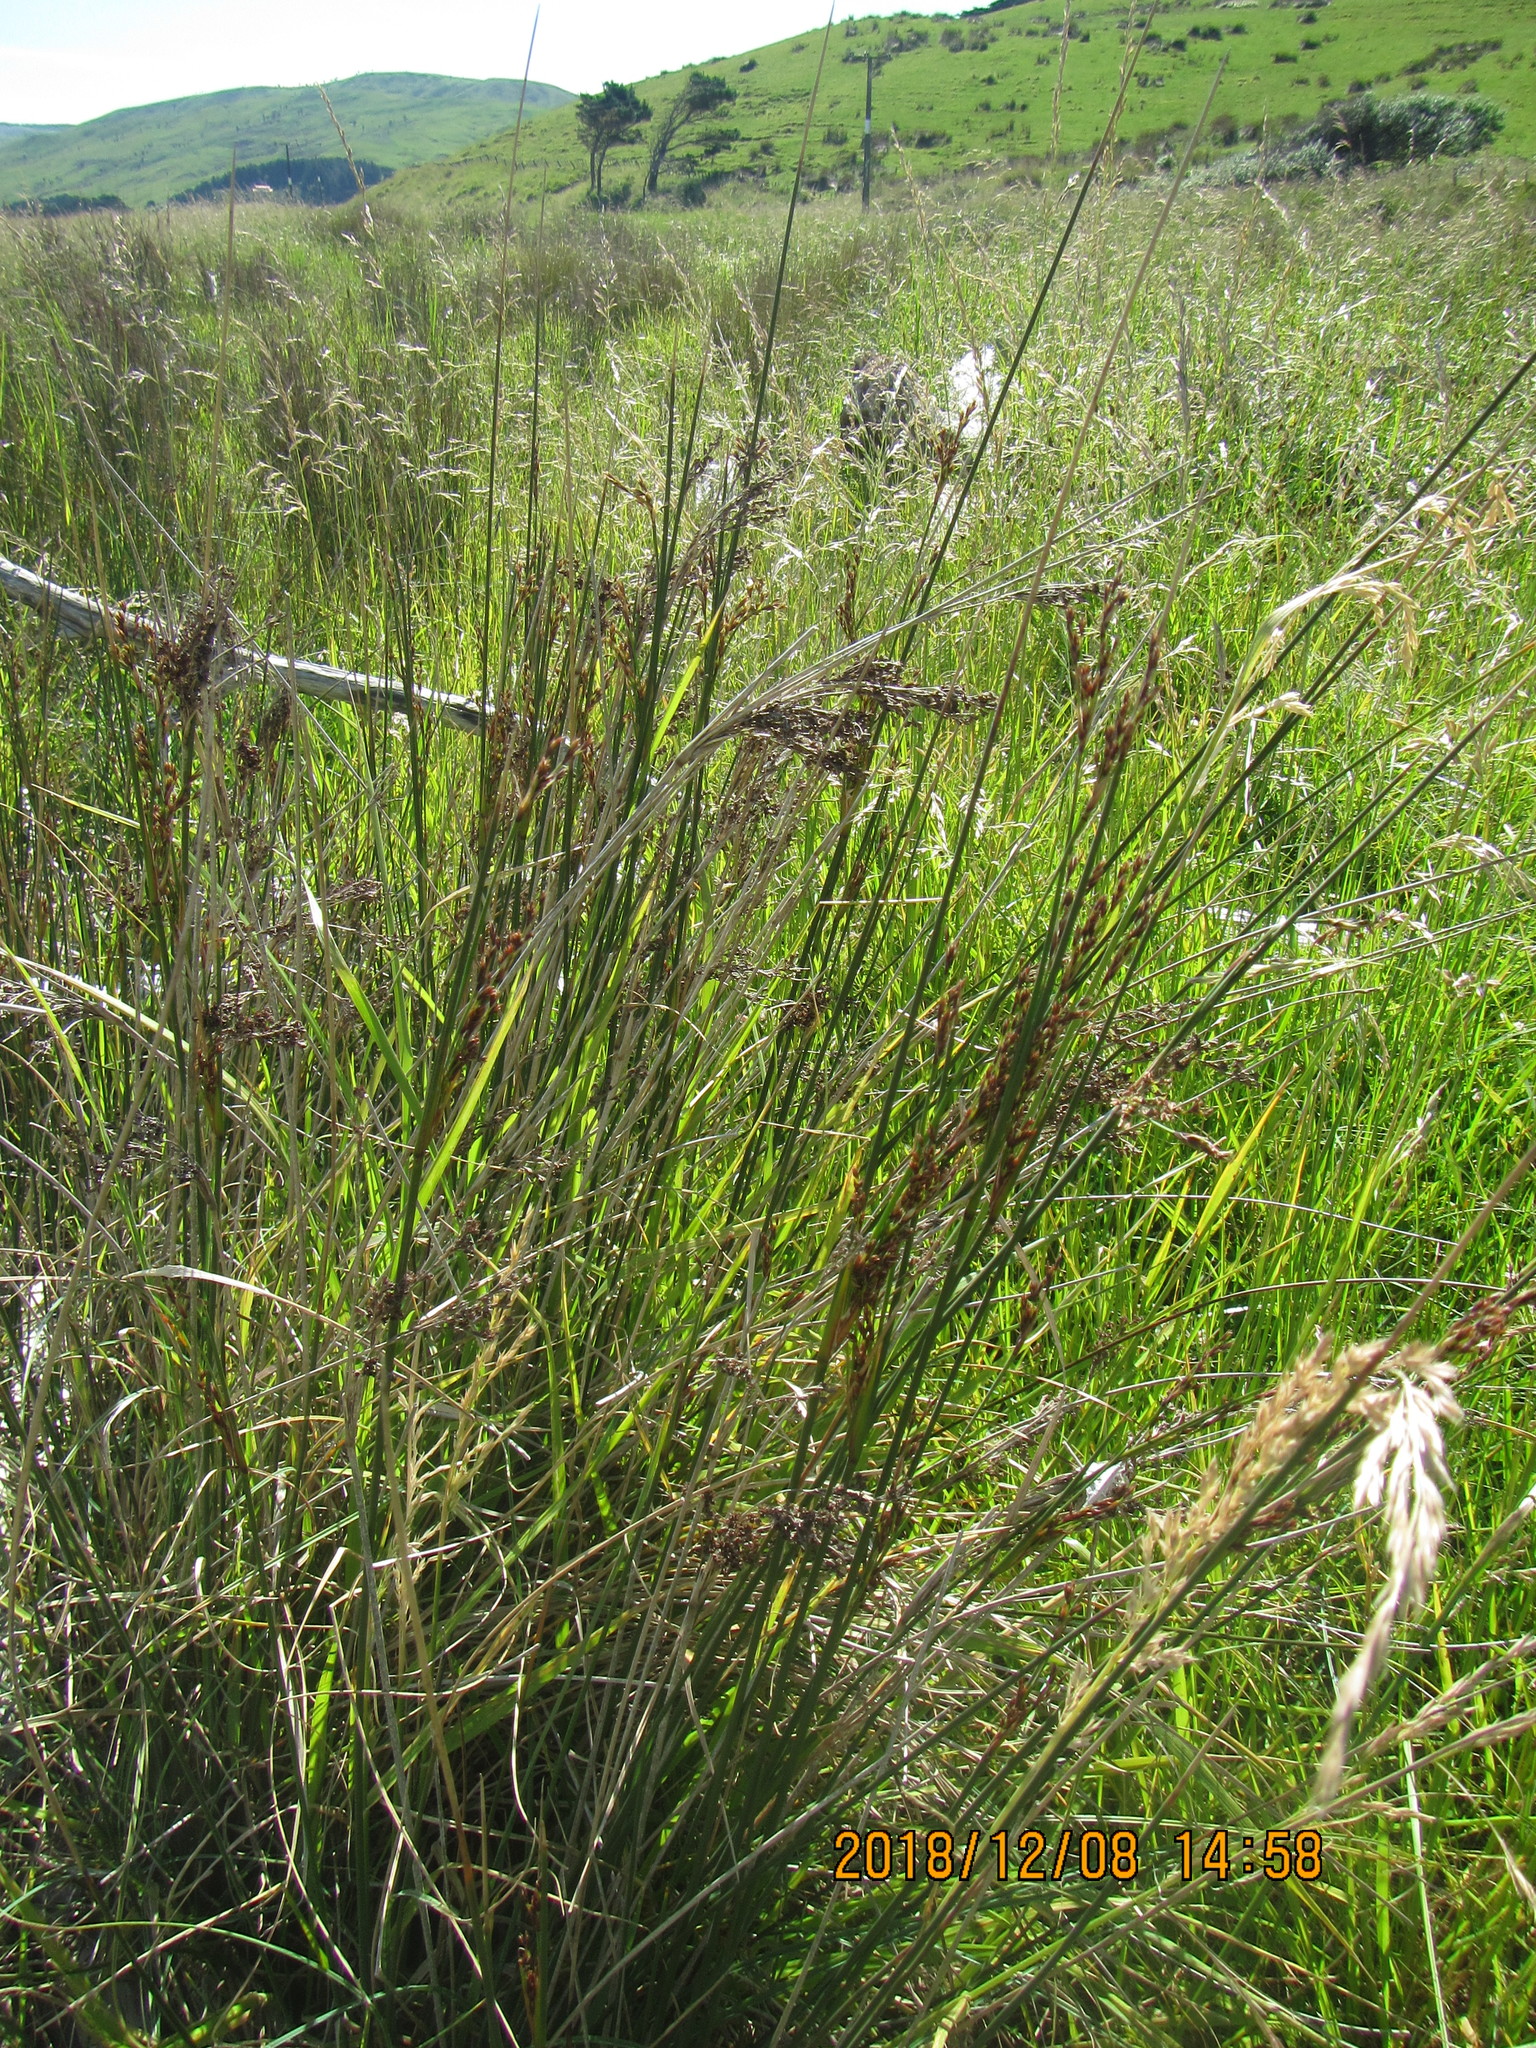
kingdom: Plantae
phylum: Tracheophyta
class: Liliopsida
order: Poales
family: Juncaceae
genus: Juncus
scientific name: Juncus kraussii
